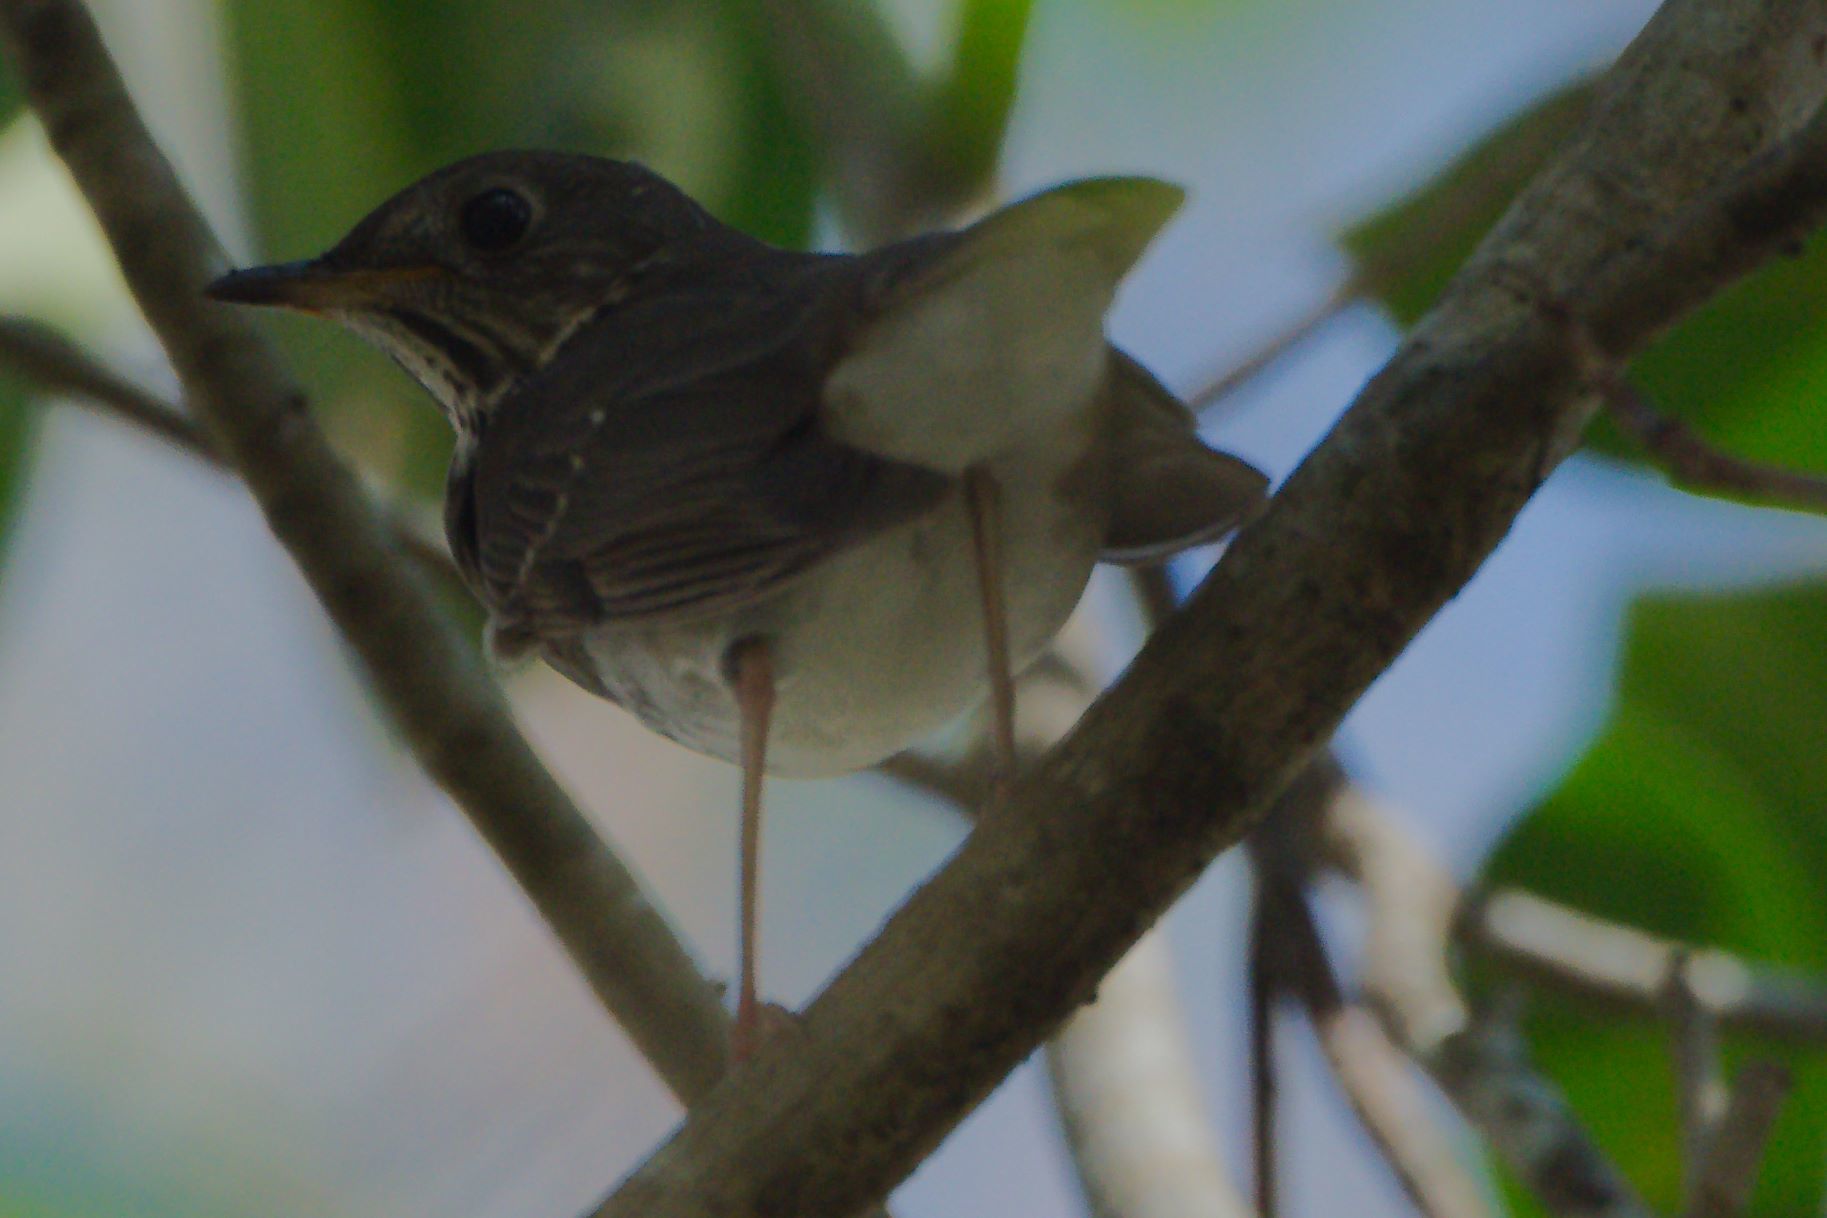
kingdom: Animalia
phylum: Chordata
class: Aves
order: Passeriformes
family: Turdidae
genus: Catharus
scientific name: Catharus minimus
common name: Grey-cheeked thrush
